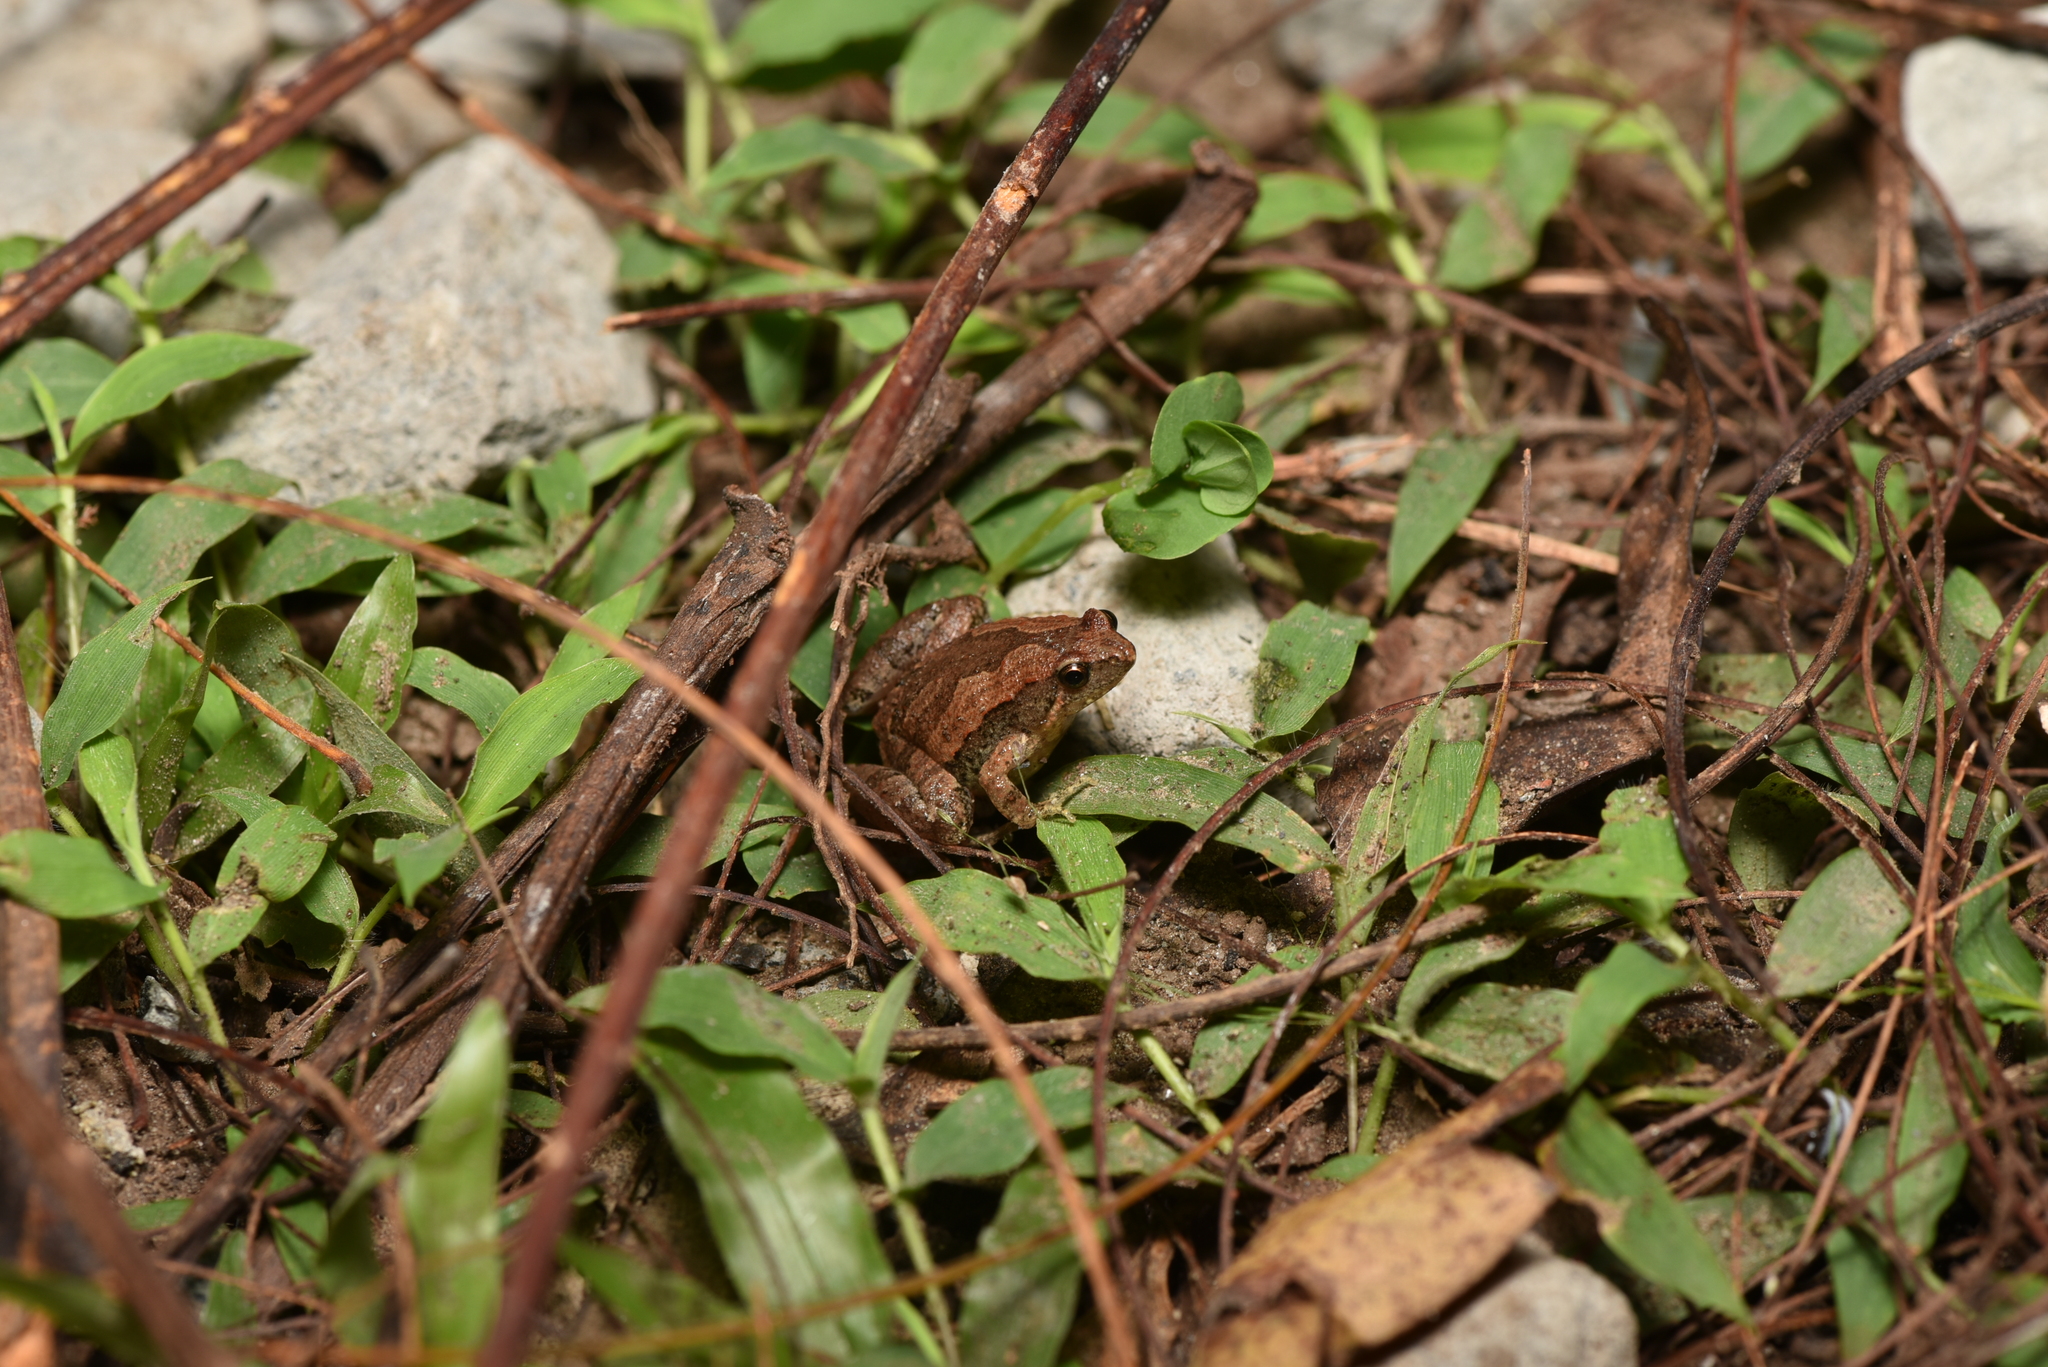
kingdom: Animalia
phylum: Chordata
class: Amphibia
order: Anura
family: Microhylidae
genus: Microhyla
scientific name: Microhyla fissipes
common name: Ornate narrow-mouthed frog
